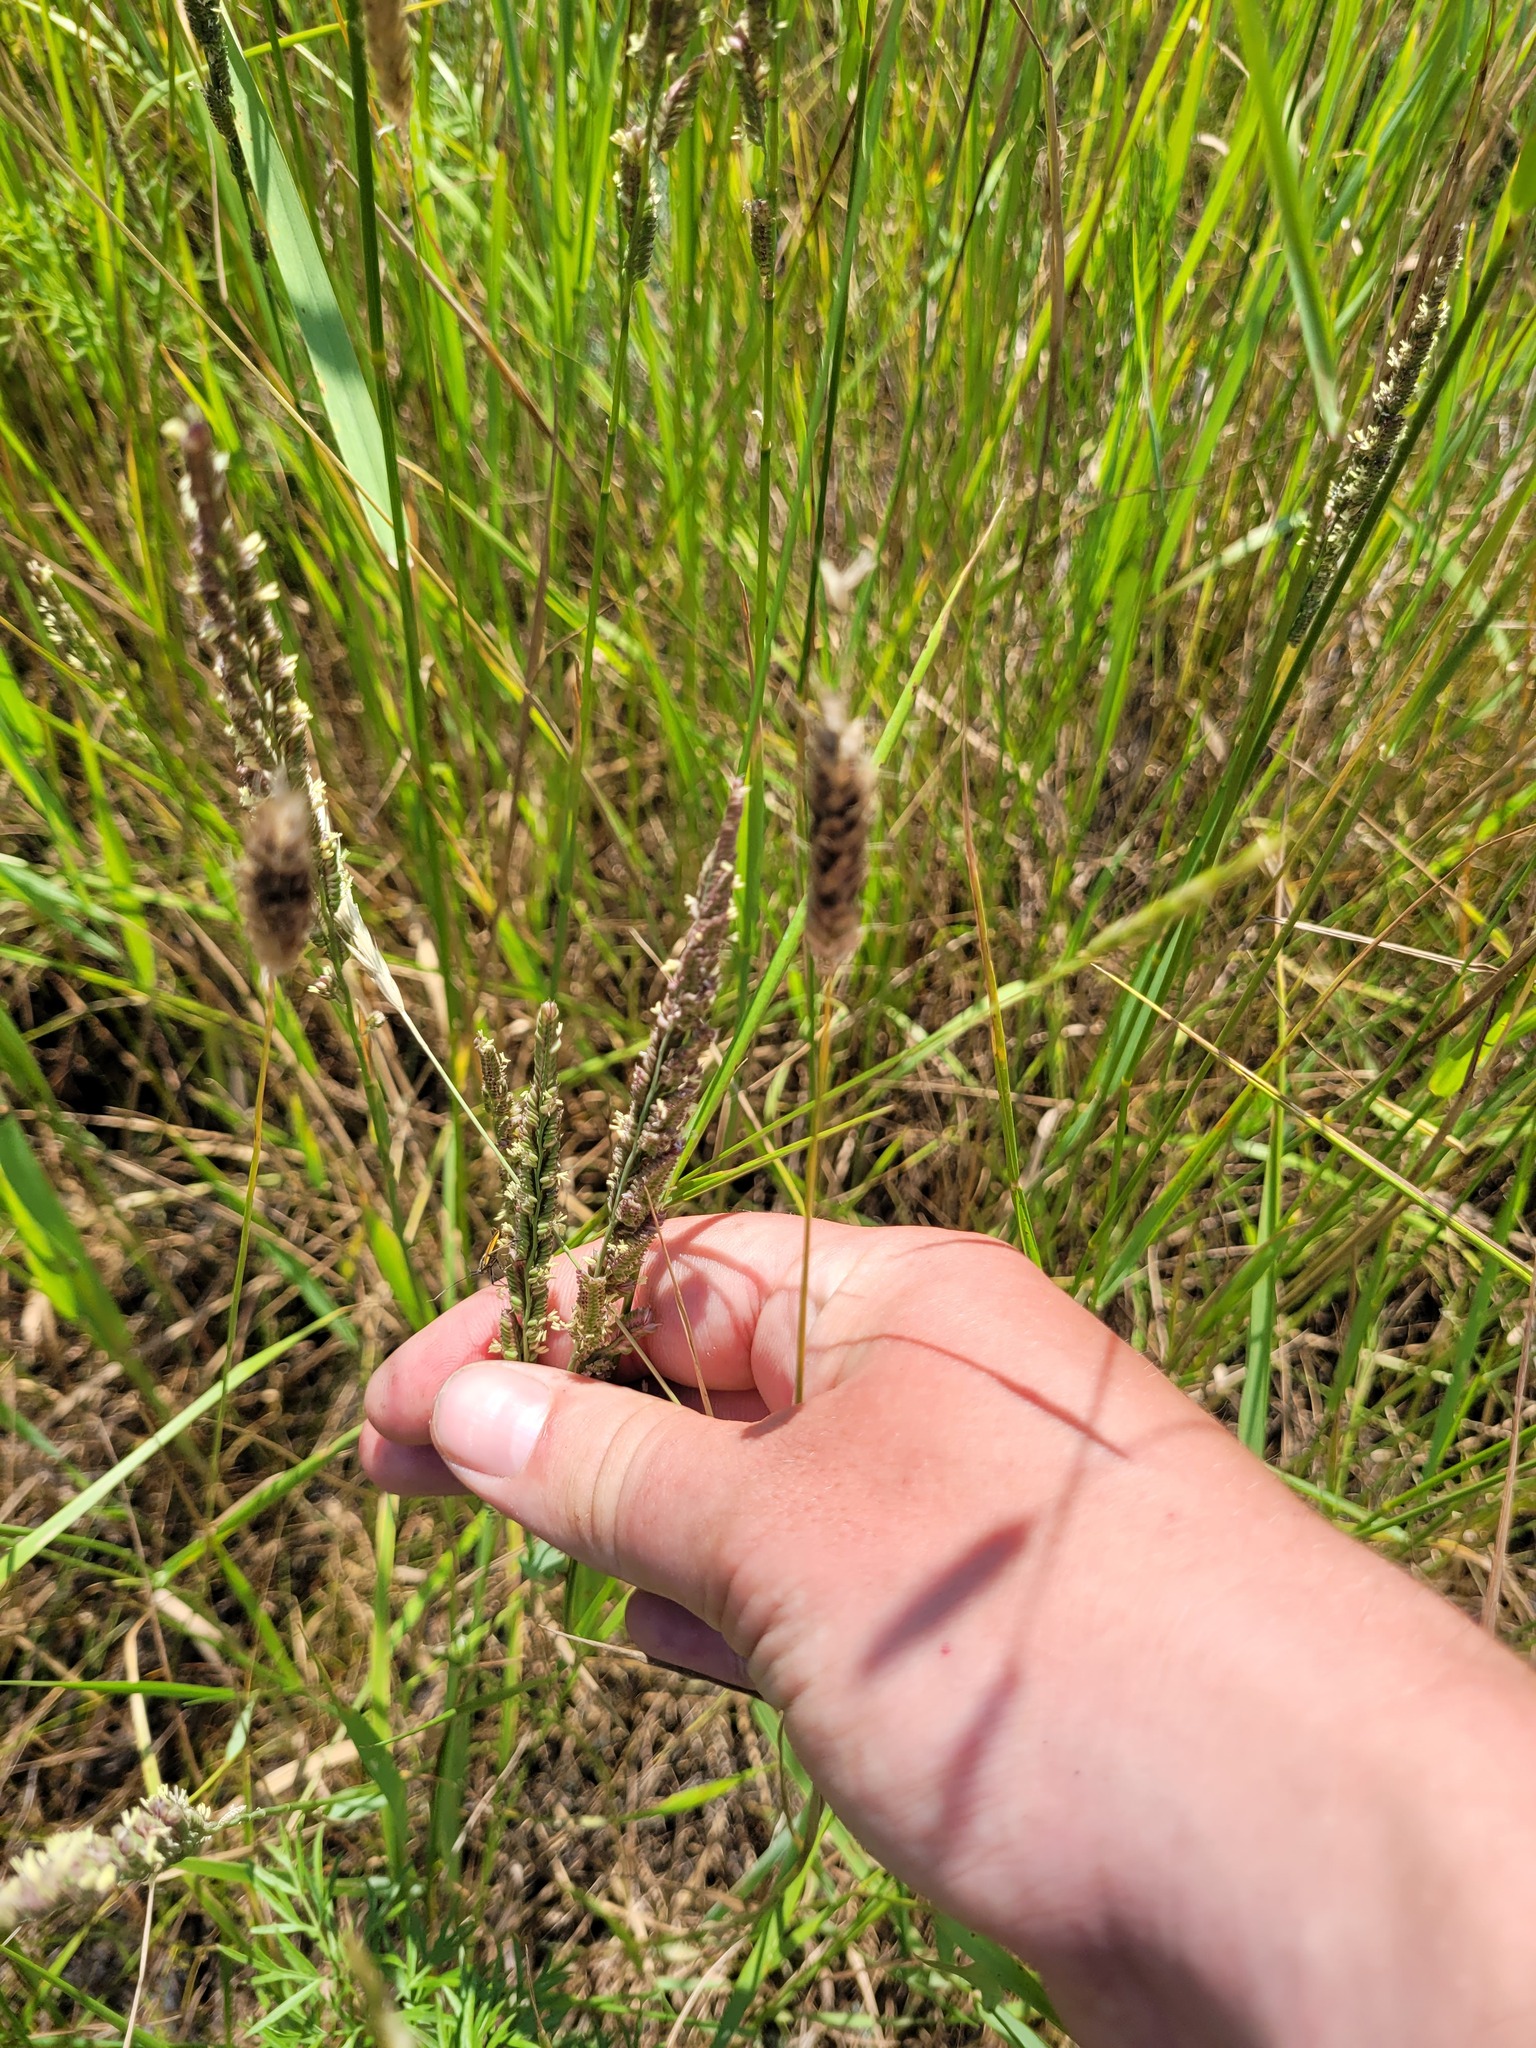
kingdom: Plantae
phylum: Tracheophyta
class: Liliopsida
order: Poales
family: Poaceae
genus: Beckmannia
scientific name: Beckmannia eruciformis
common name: European slough-grass
